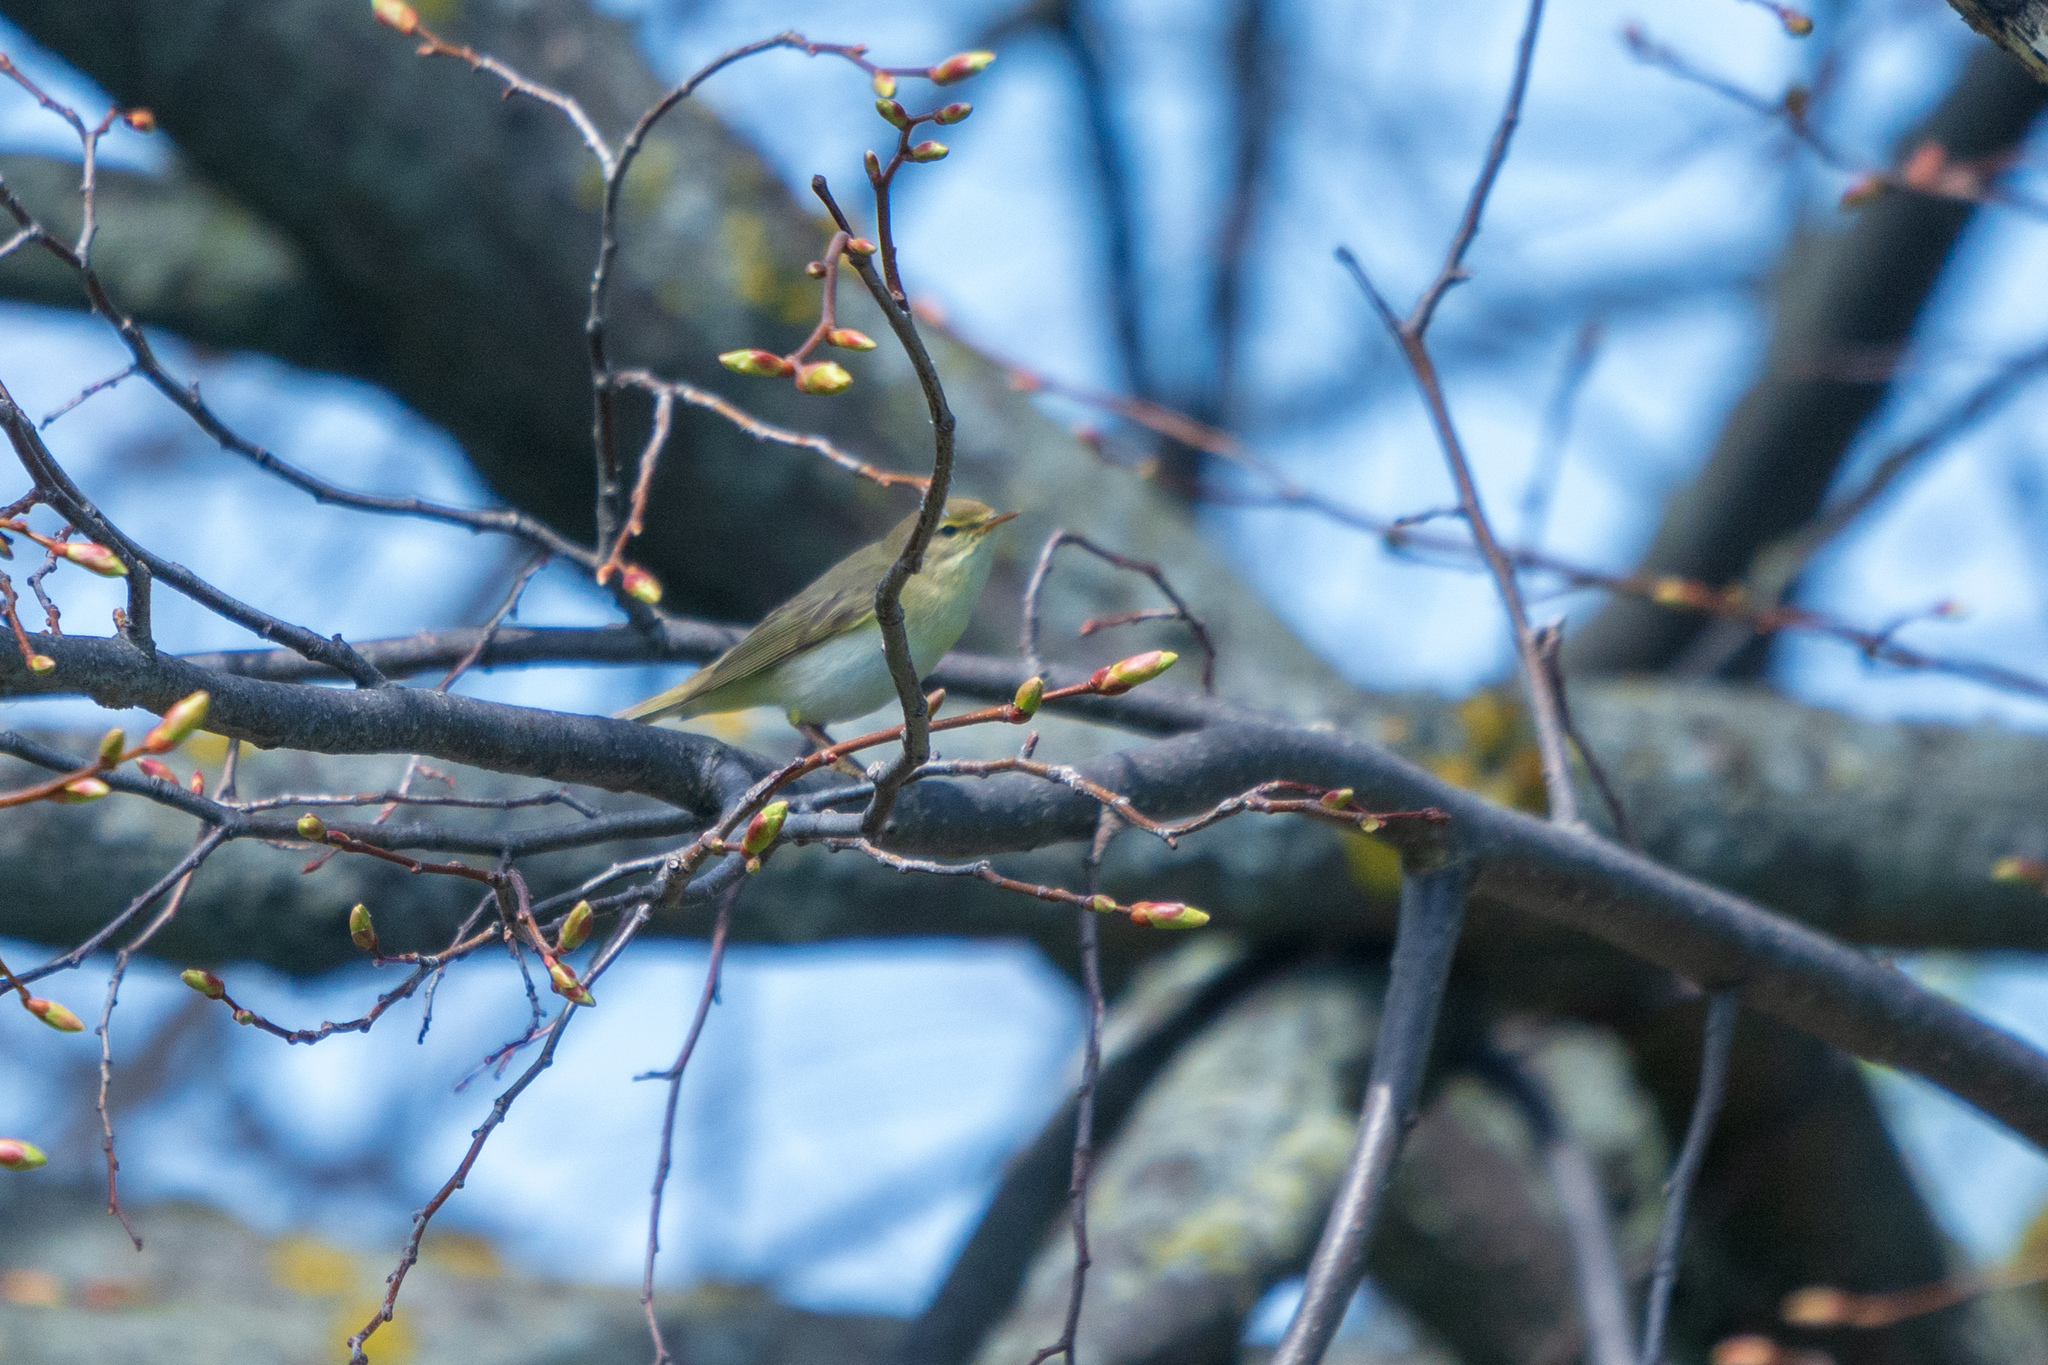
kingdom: Animalia
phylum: Chordata
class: Aves
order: Passeriformes
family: Phylloscopidae
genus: Phylloscopus
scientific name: Phylloscopus trochilus
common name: Willow warbler
